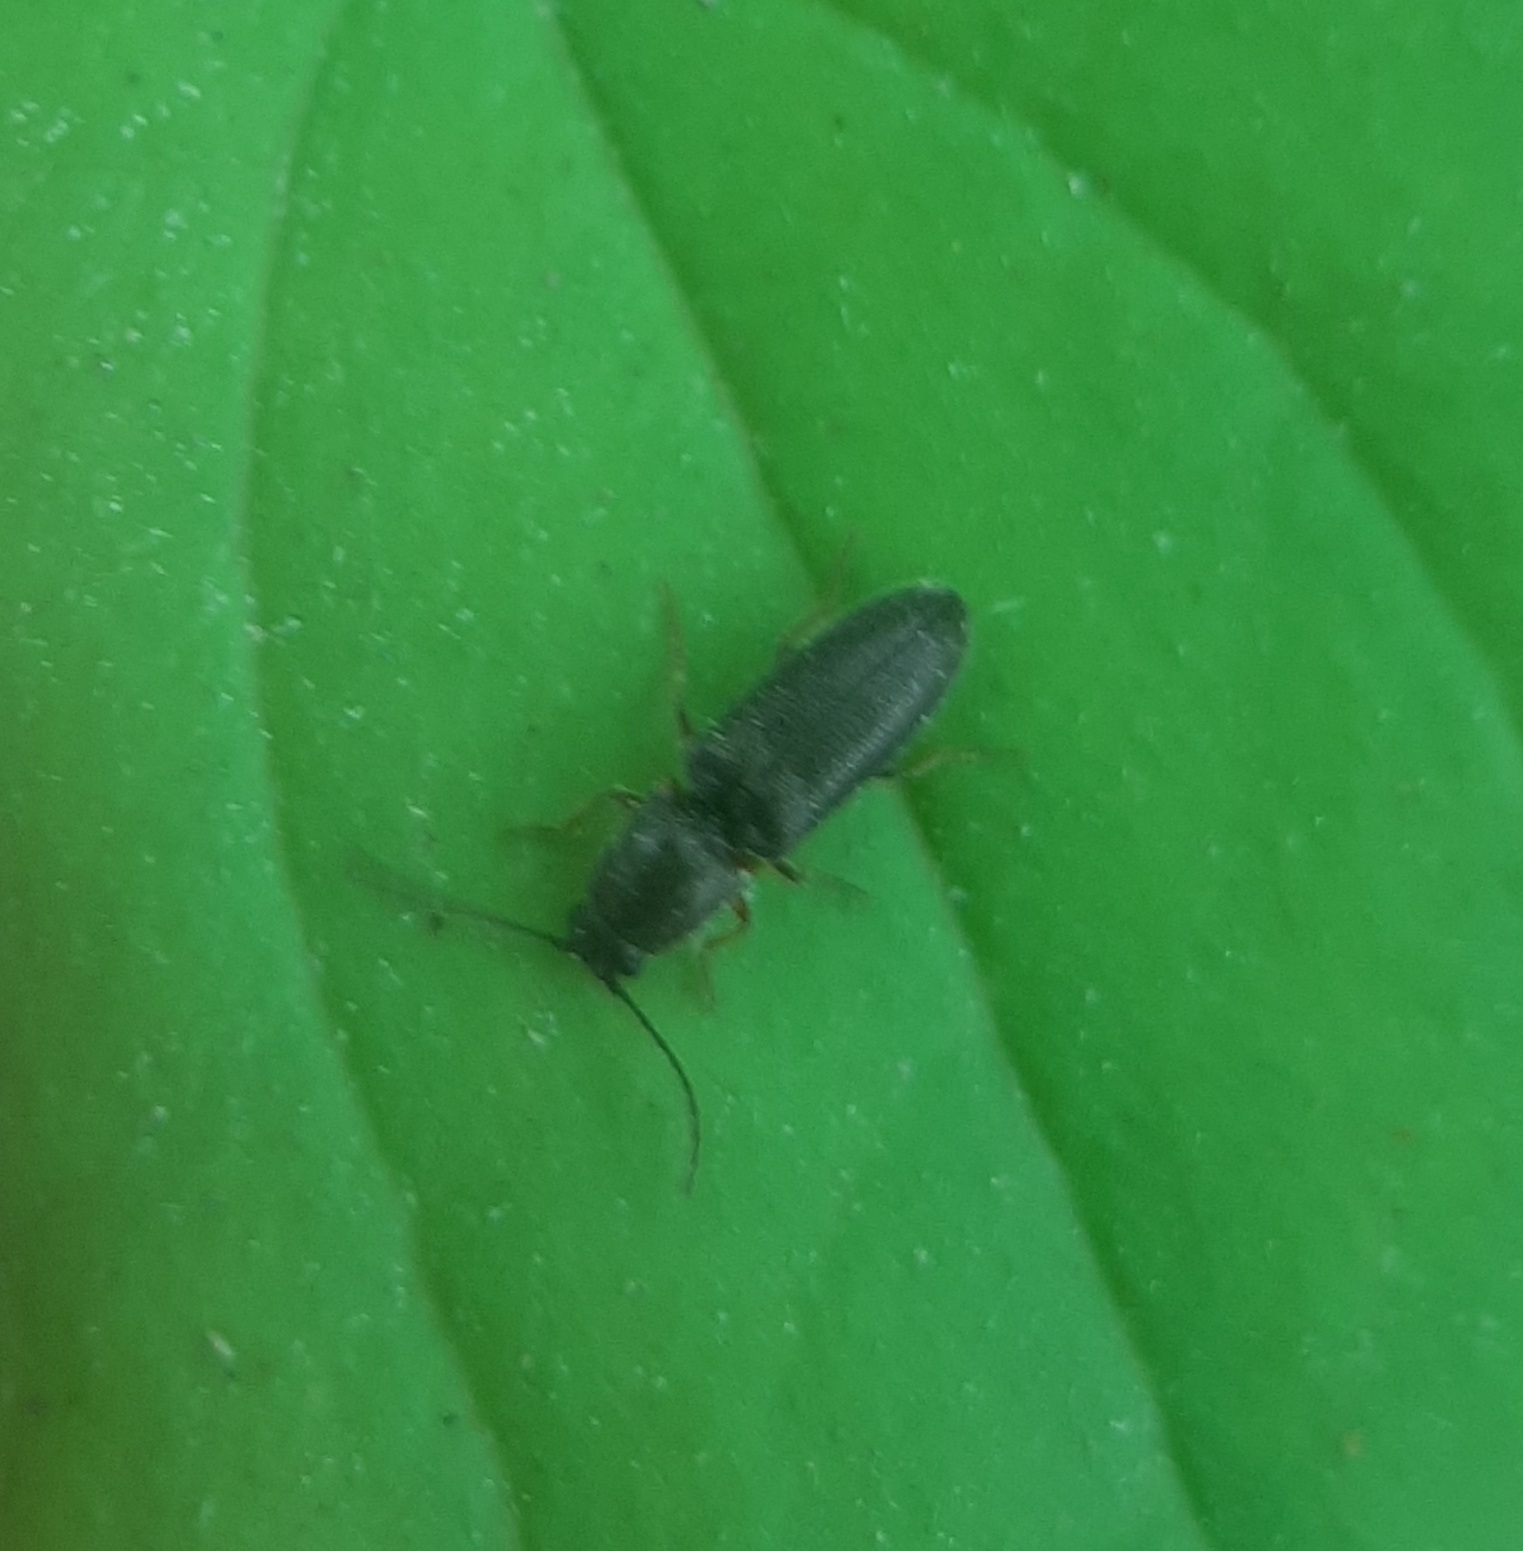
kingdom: Animalia
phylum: Arthropoda
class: Insecta
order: Coleoptera
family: Elateridae
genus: Limonius
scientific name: Limonius basilaris
